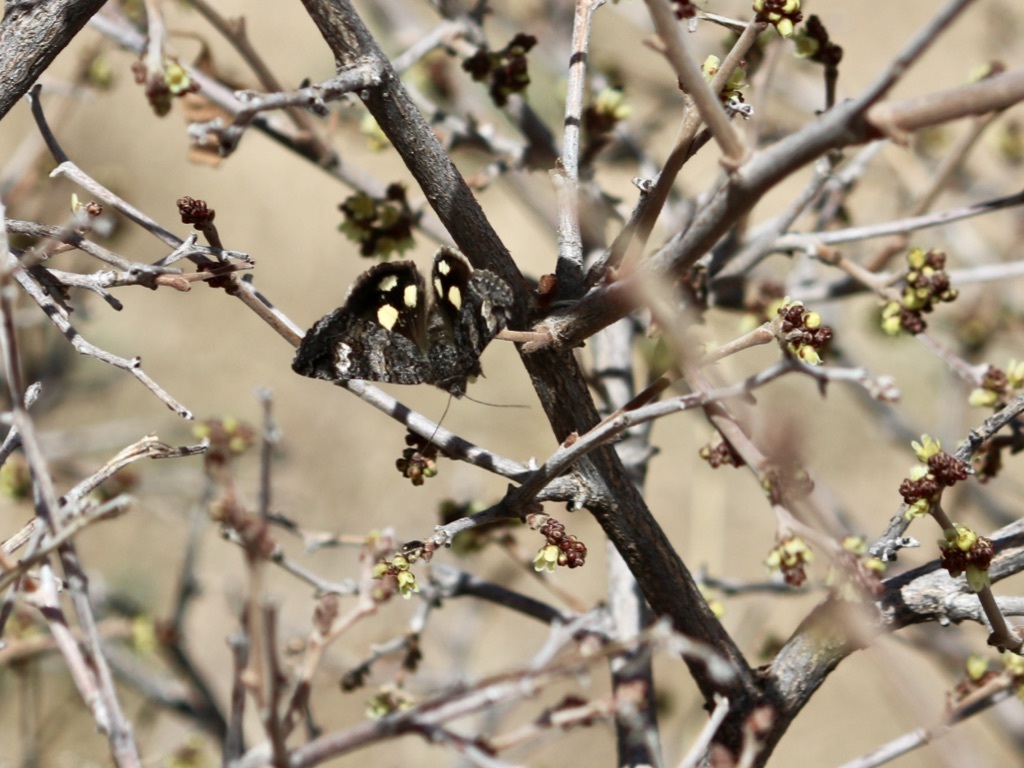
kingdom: Animalia
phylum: Arthropoda
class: Insecta
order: Lepidoptera
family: Erebidae
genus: Litocala
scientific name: Litocala sexsignata
